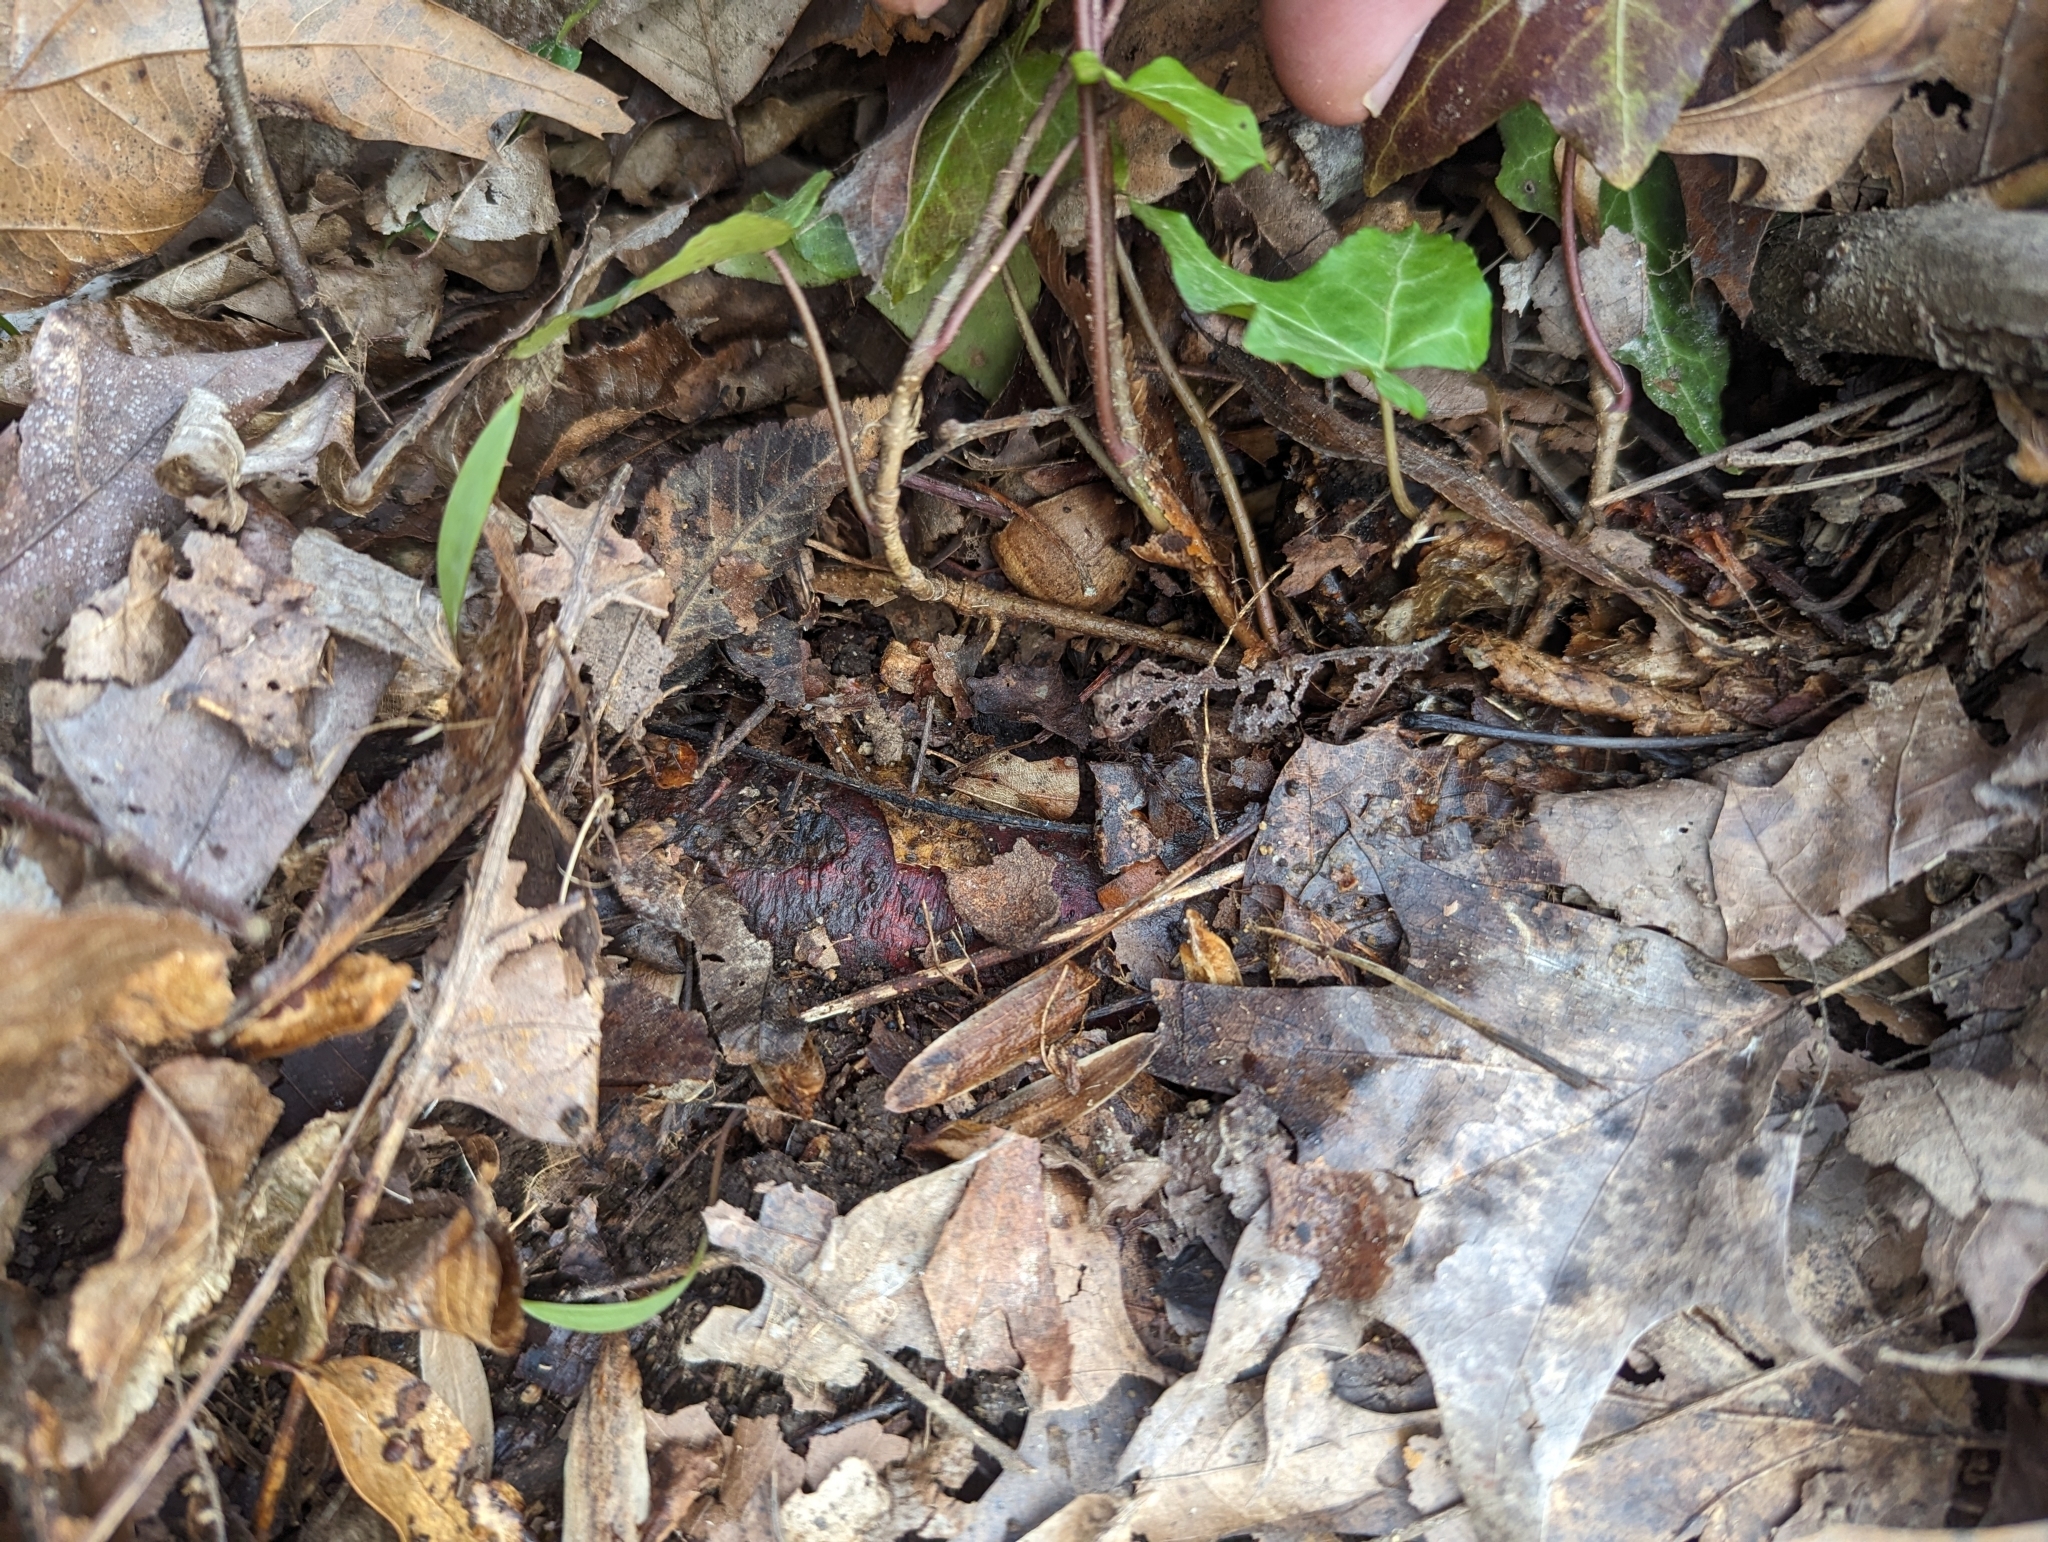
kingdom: Plantae
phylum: Tracheophyta
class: Magnoliopsida
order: Apiales
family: Araliaceae
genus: Hedera
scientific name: Hedera helix
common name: Ivy
